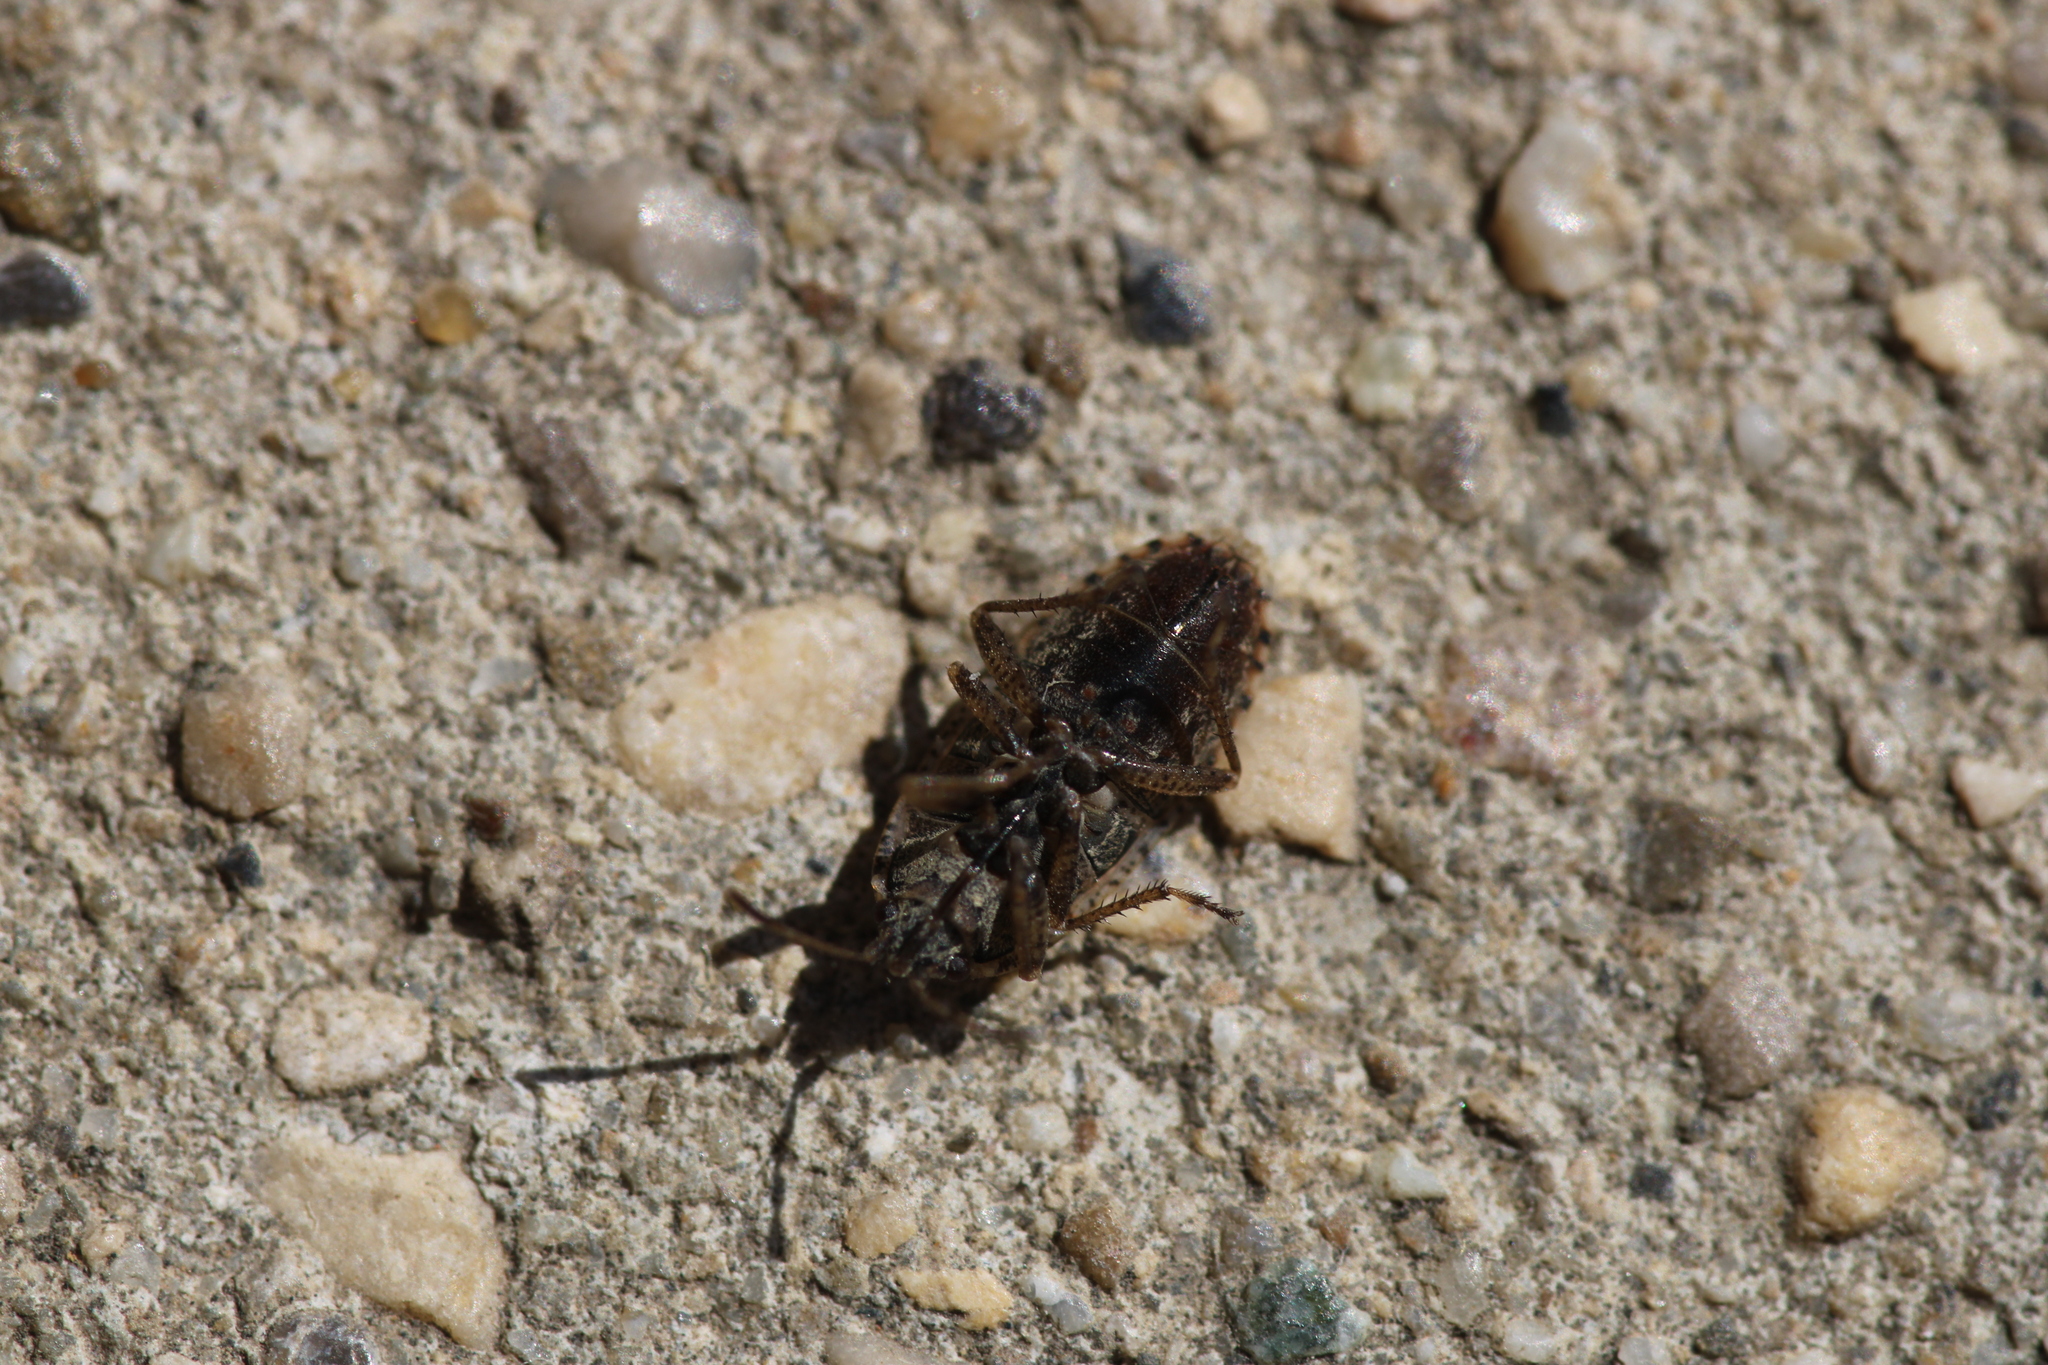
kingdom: Animalia
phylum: Arthropoda
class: Insecta
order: Hemiptera
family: Rhyparochromidae
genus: Emblethis
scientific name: Emblethis denticollis
